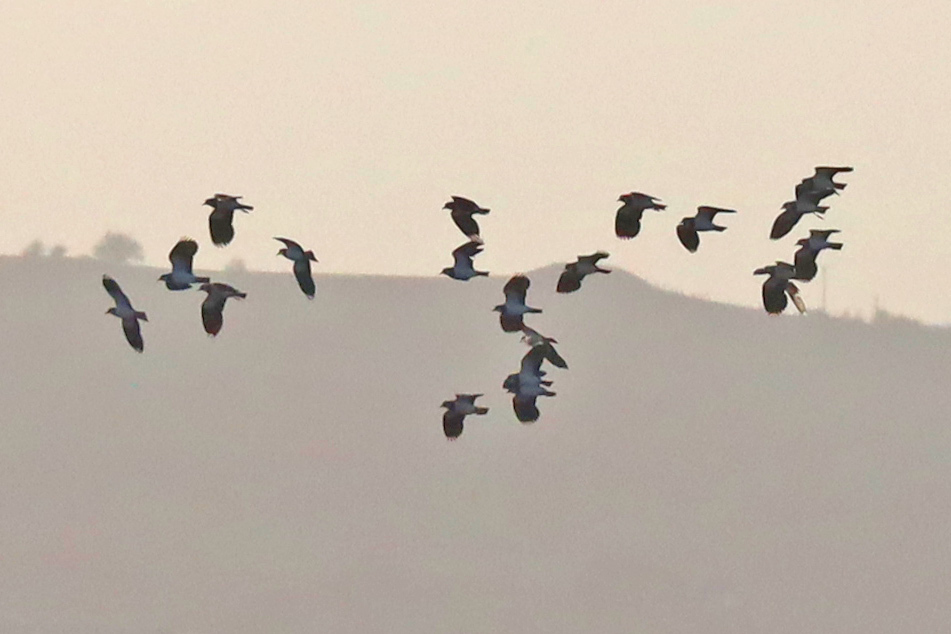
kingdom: Animalia
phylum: Chordata
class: Aves
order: Charadriiformes
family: Charadriidae
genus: Vanellus
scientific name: Vanellus vanellus
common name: Northern lapwing
